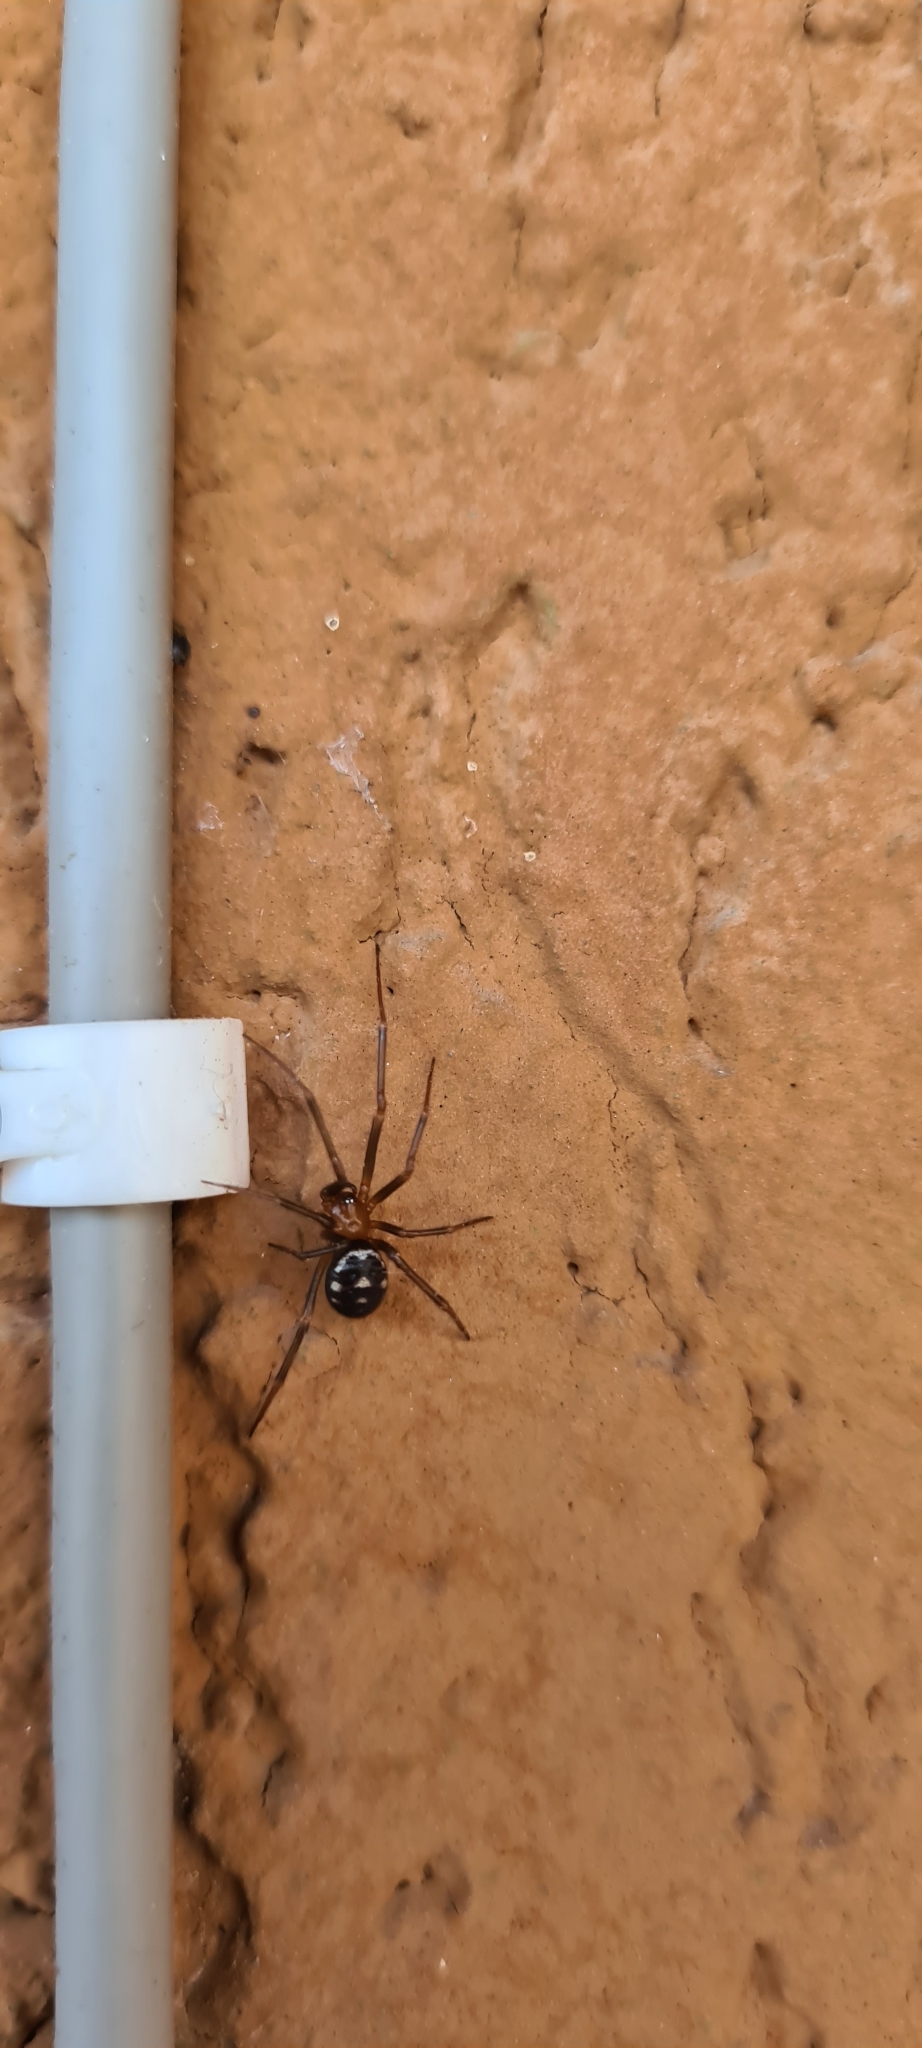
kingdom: Animalia
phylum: Arthropoda
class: Arachnida
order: Araneae
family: Theridiidae
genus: Steatoda
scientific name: Steatoda grossa
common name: False black widow
